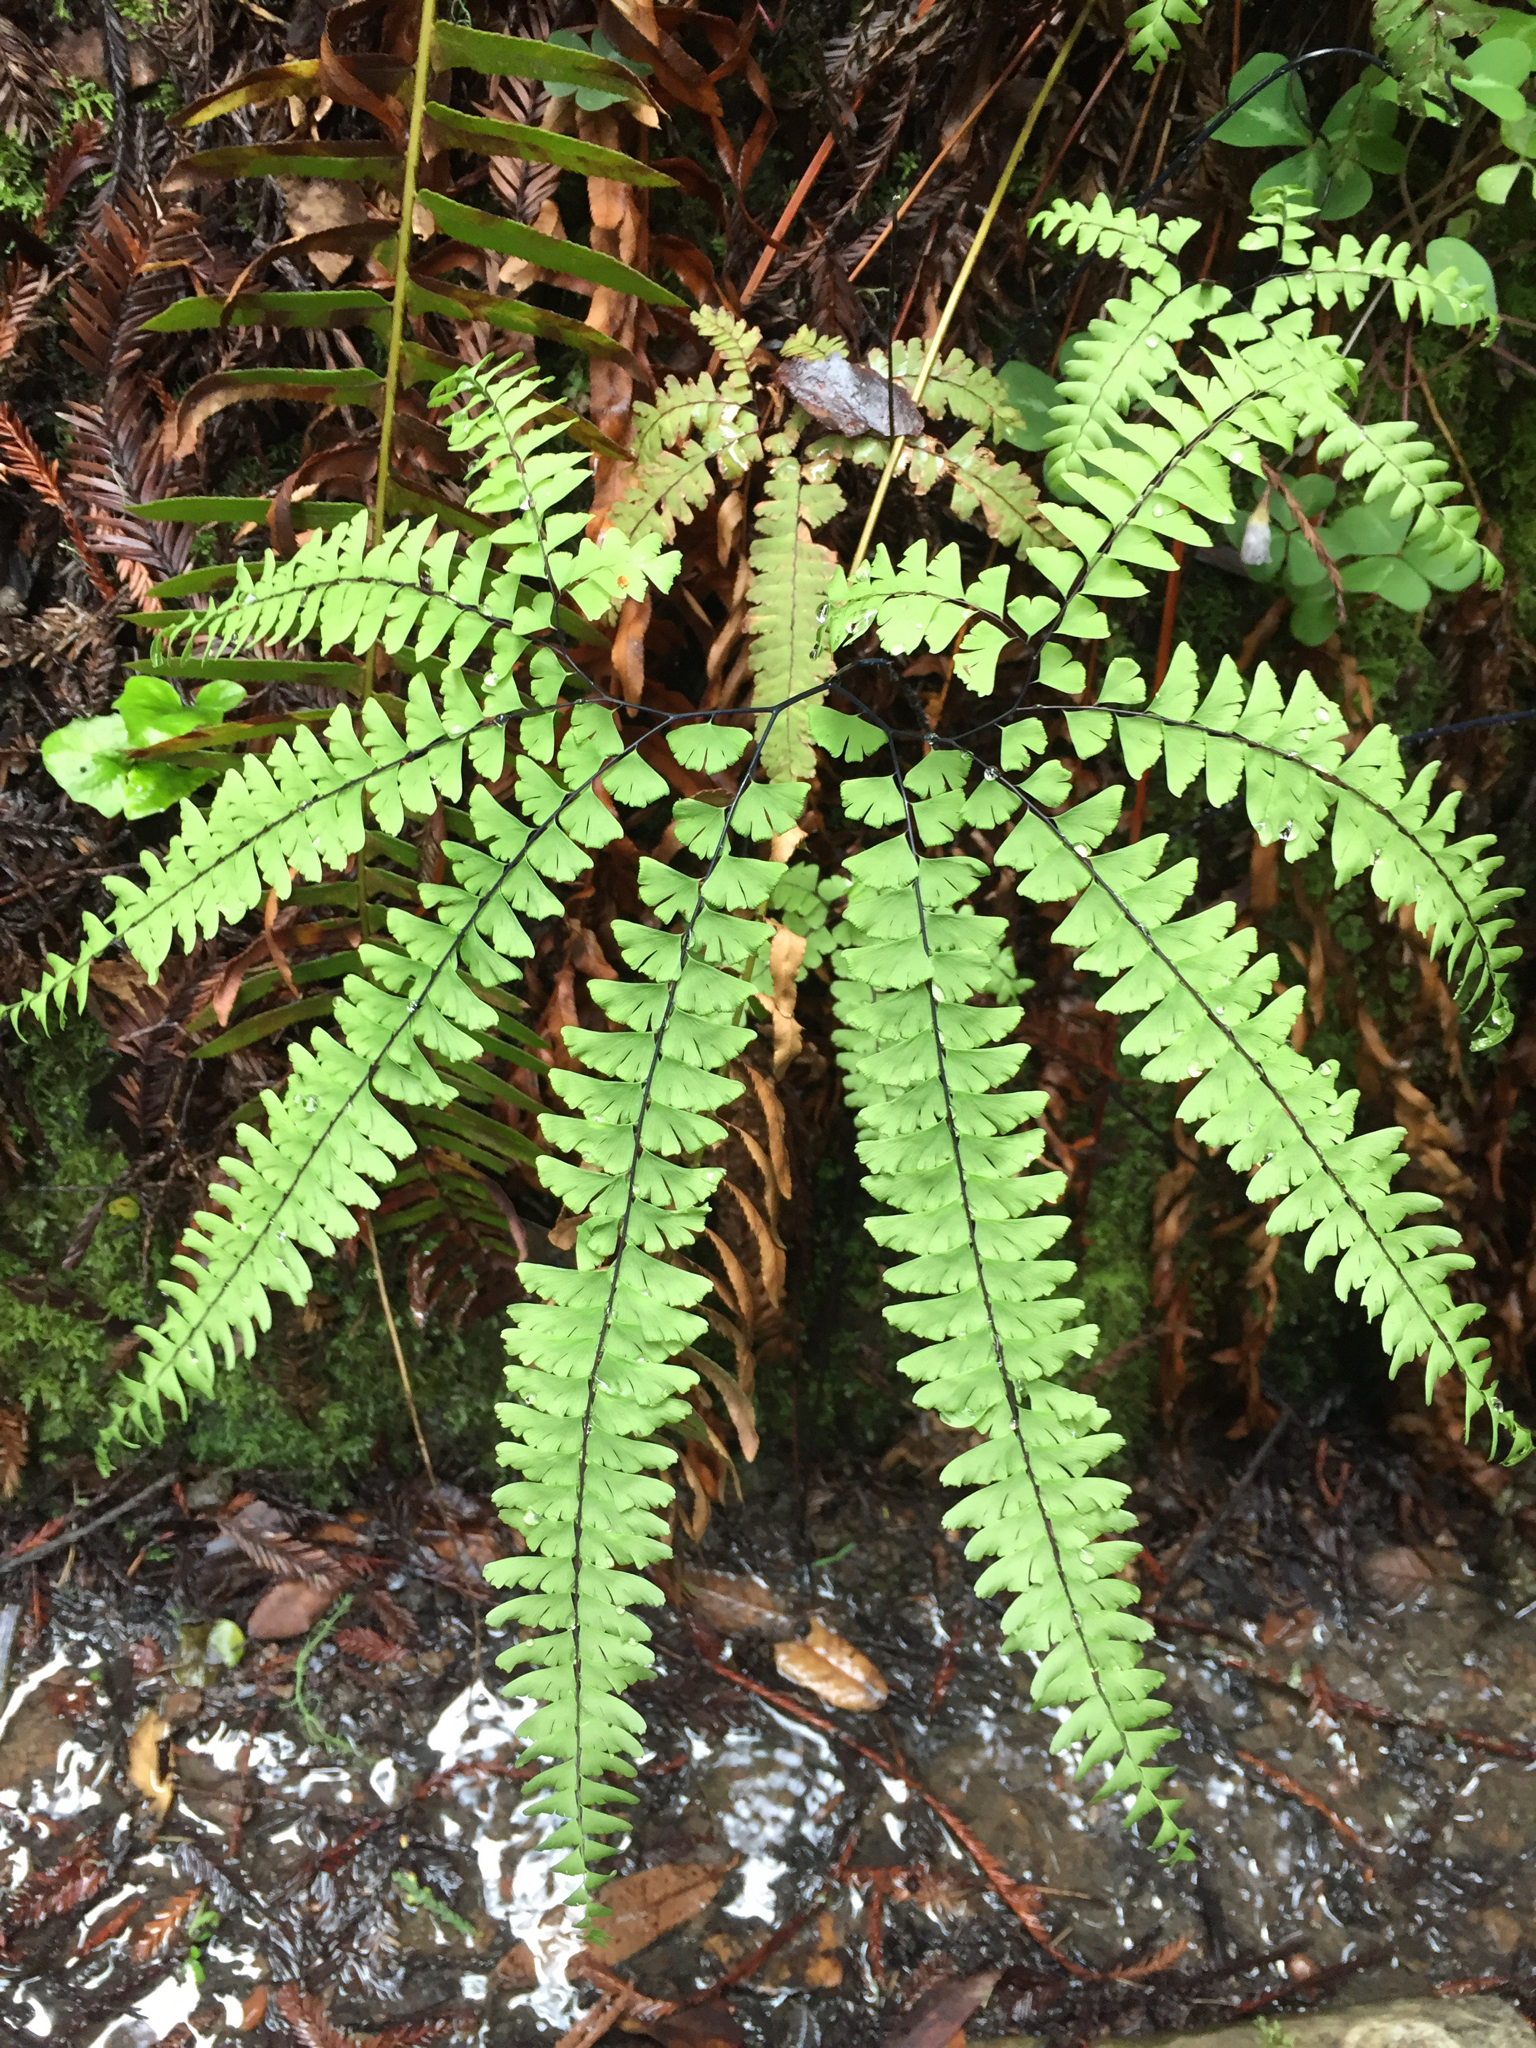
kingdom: Plantae
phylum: Tracheophyta
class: Polypodiopsida
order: Polypodiales
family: Pteridaceae
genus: Adiantum
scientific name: Adiantum aleuticum
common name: Aleutian maidenhair fern
